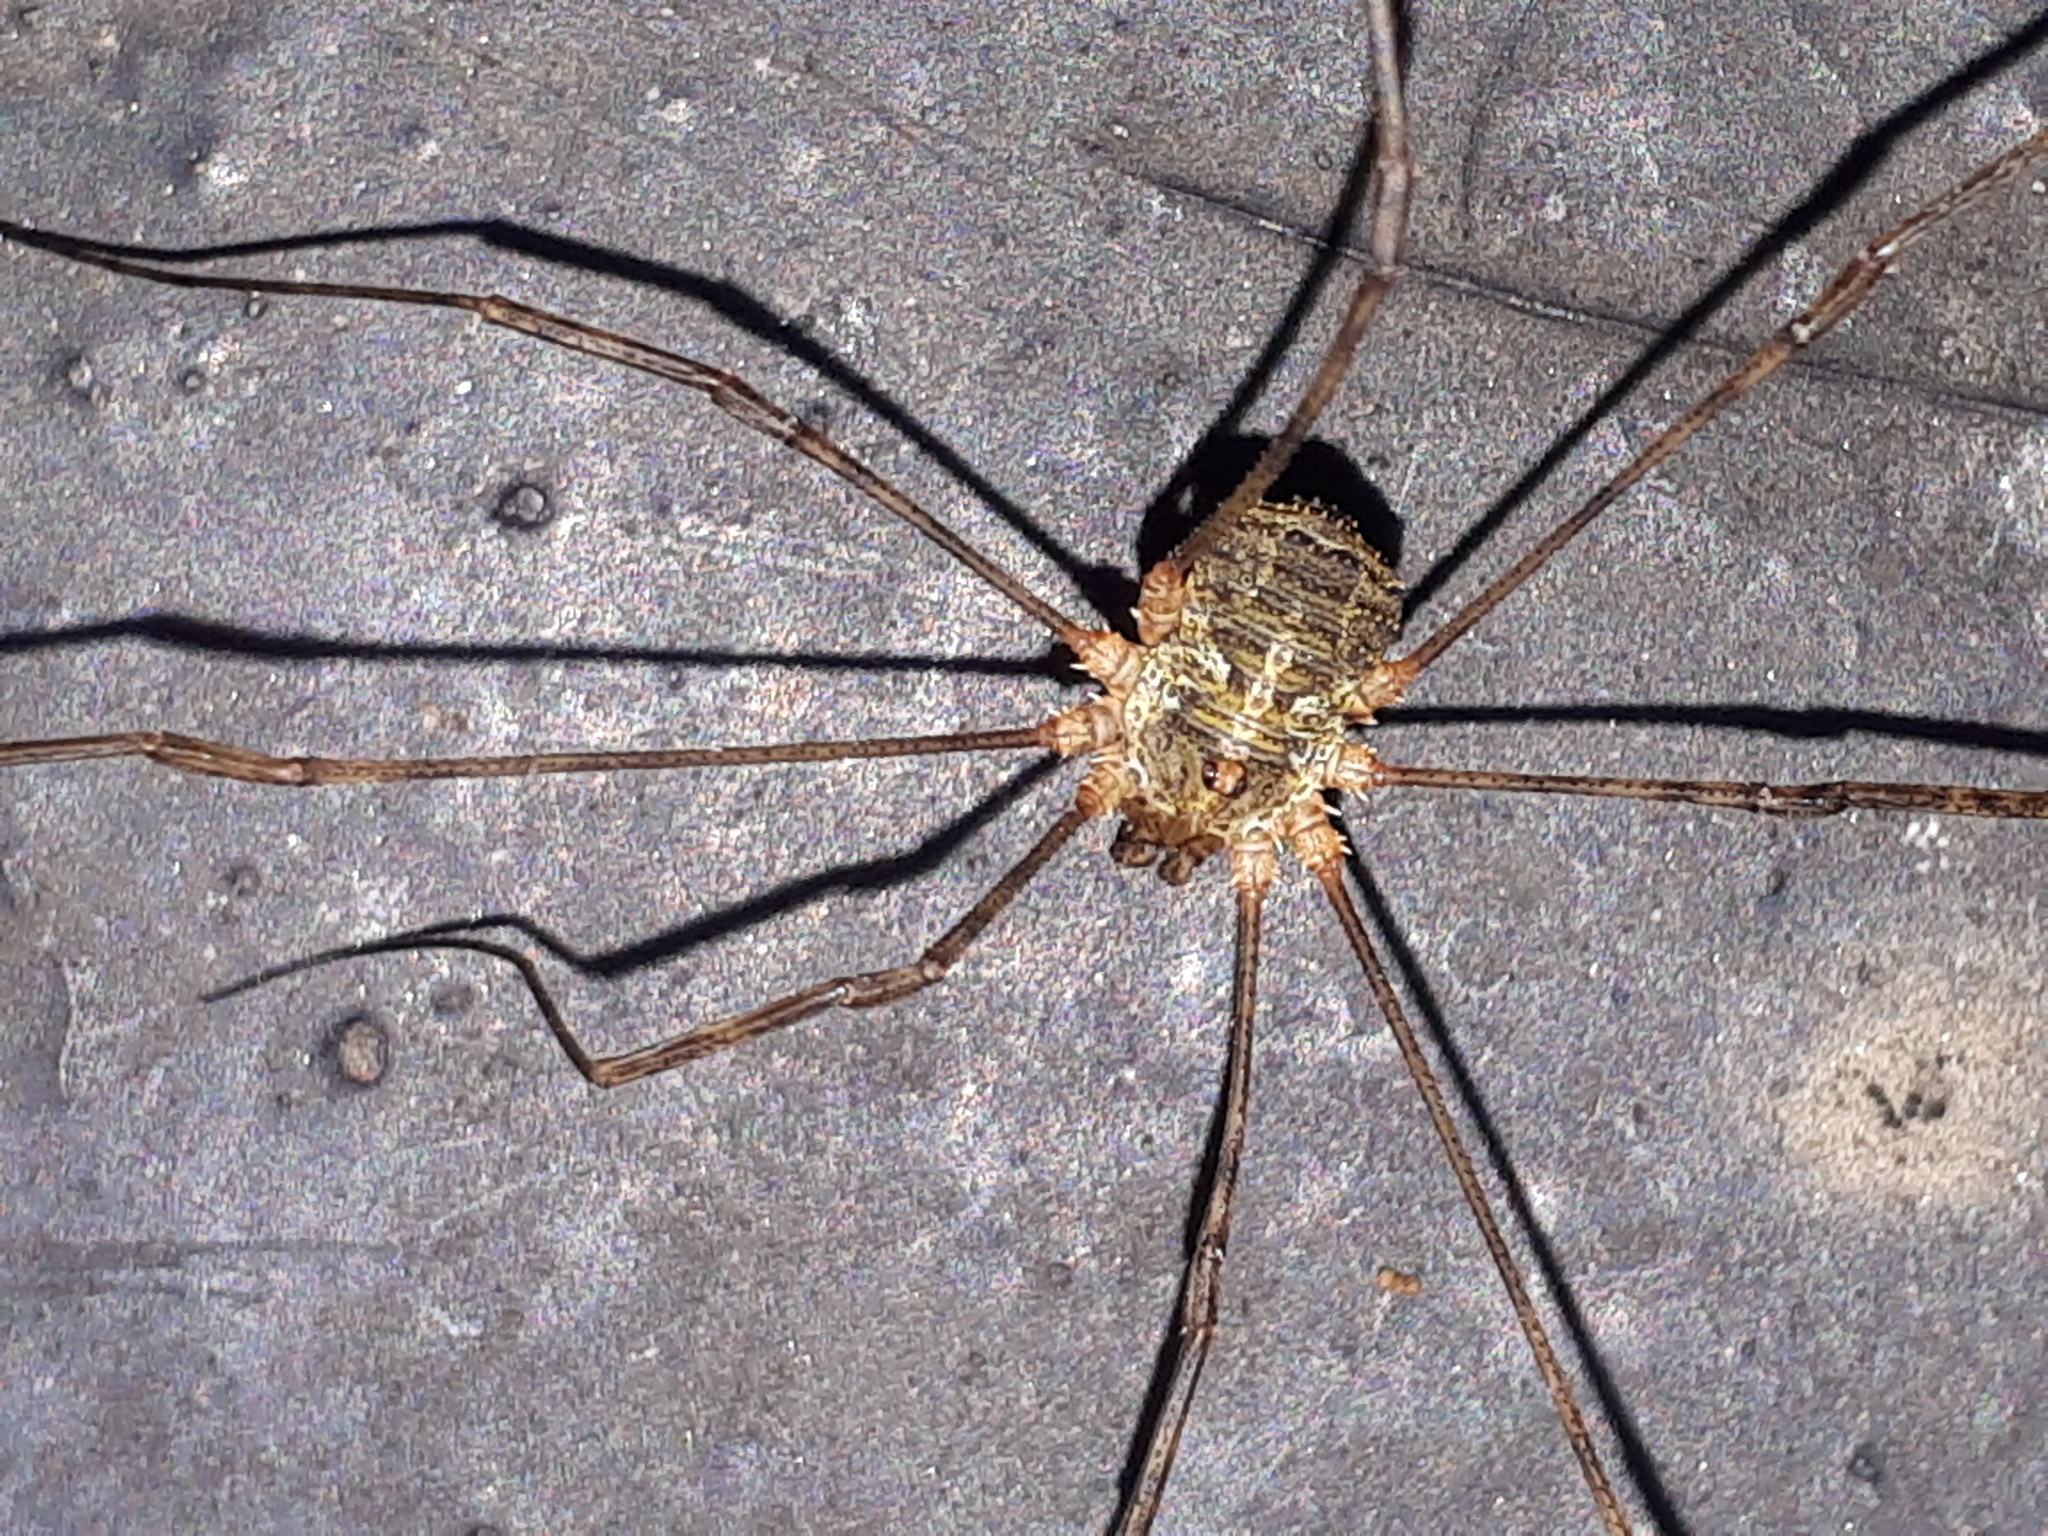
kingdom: Animalia
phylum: Arthropoda
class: Arachnida
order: Opiliones
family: Phalangiidae
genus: Lacinius
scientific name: Lacinius dentiger
